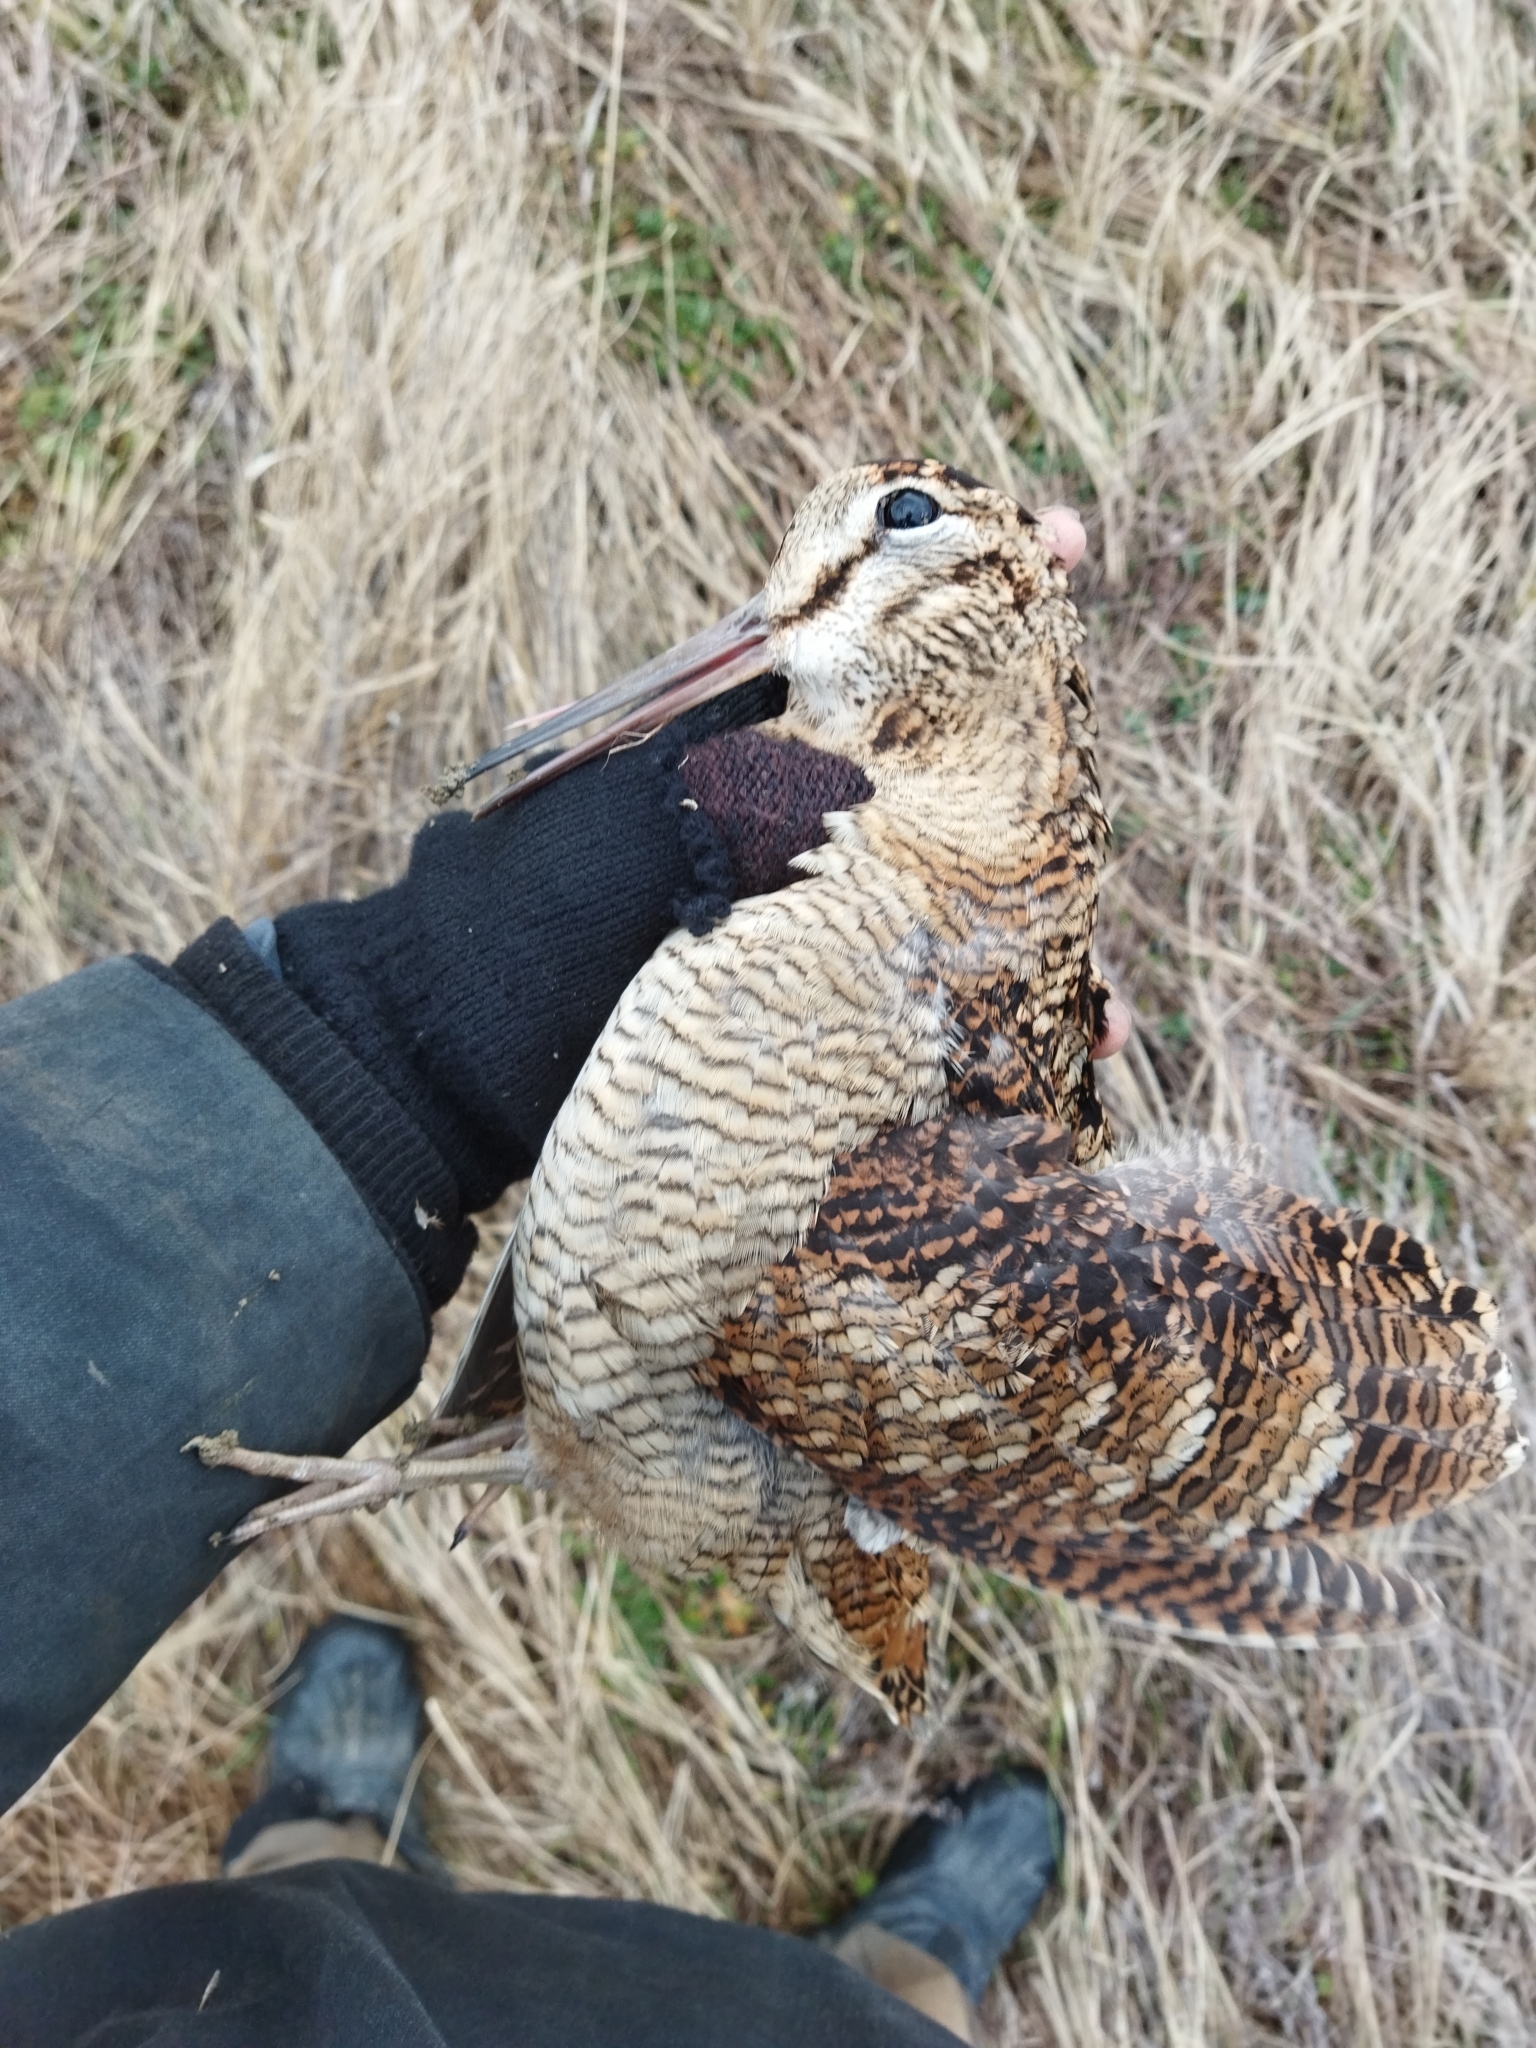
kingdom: Animalia
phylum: Chordata
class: Aves
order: Charadriiformes
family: Scolopacidae
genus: Scolopax
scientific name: Scolopax rusticola
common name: Eurasian woodcock
